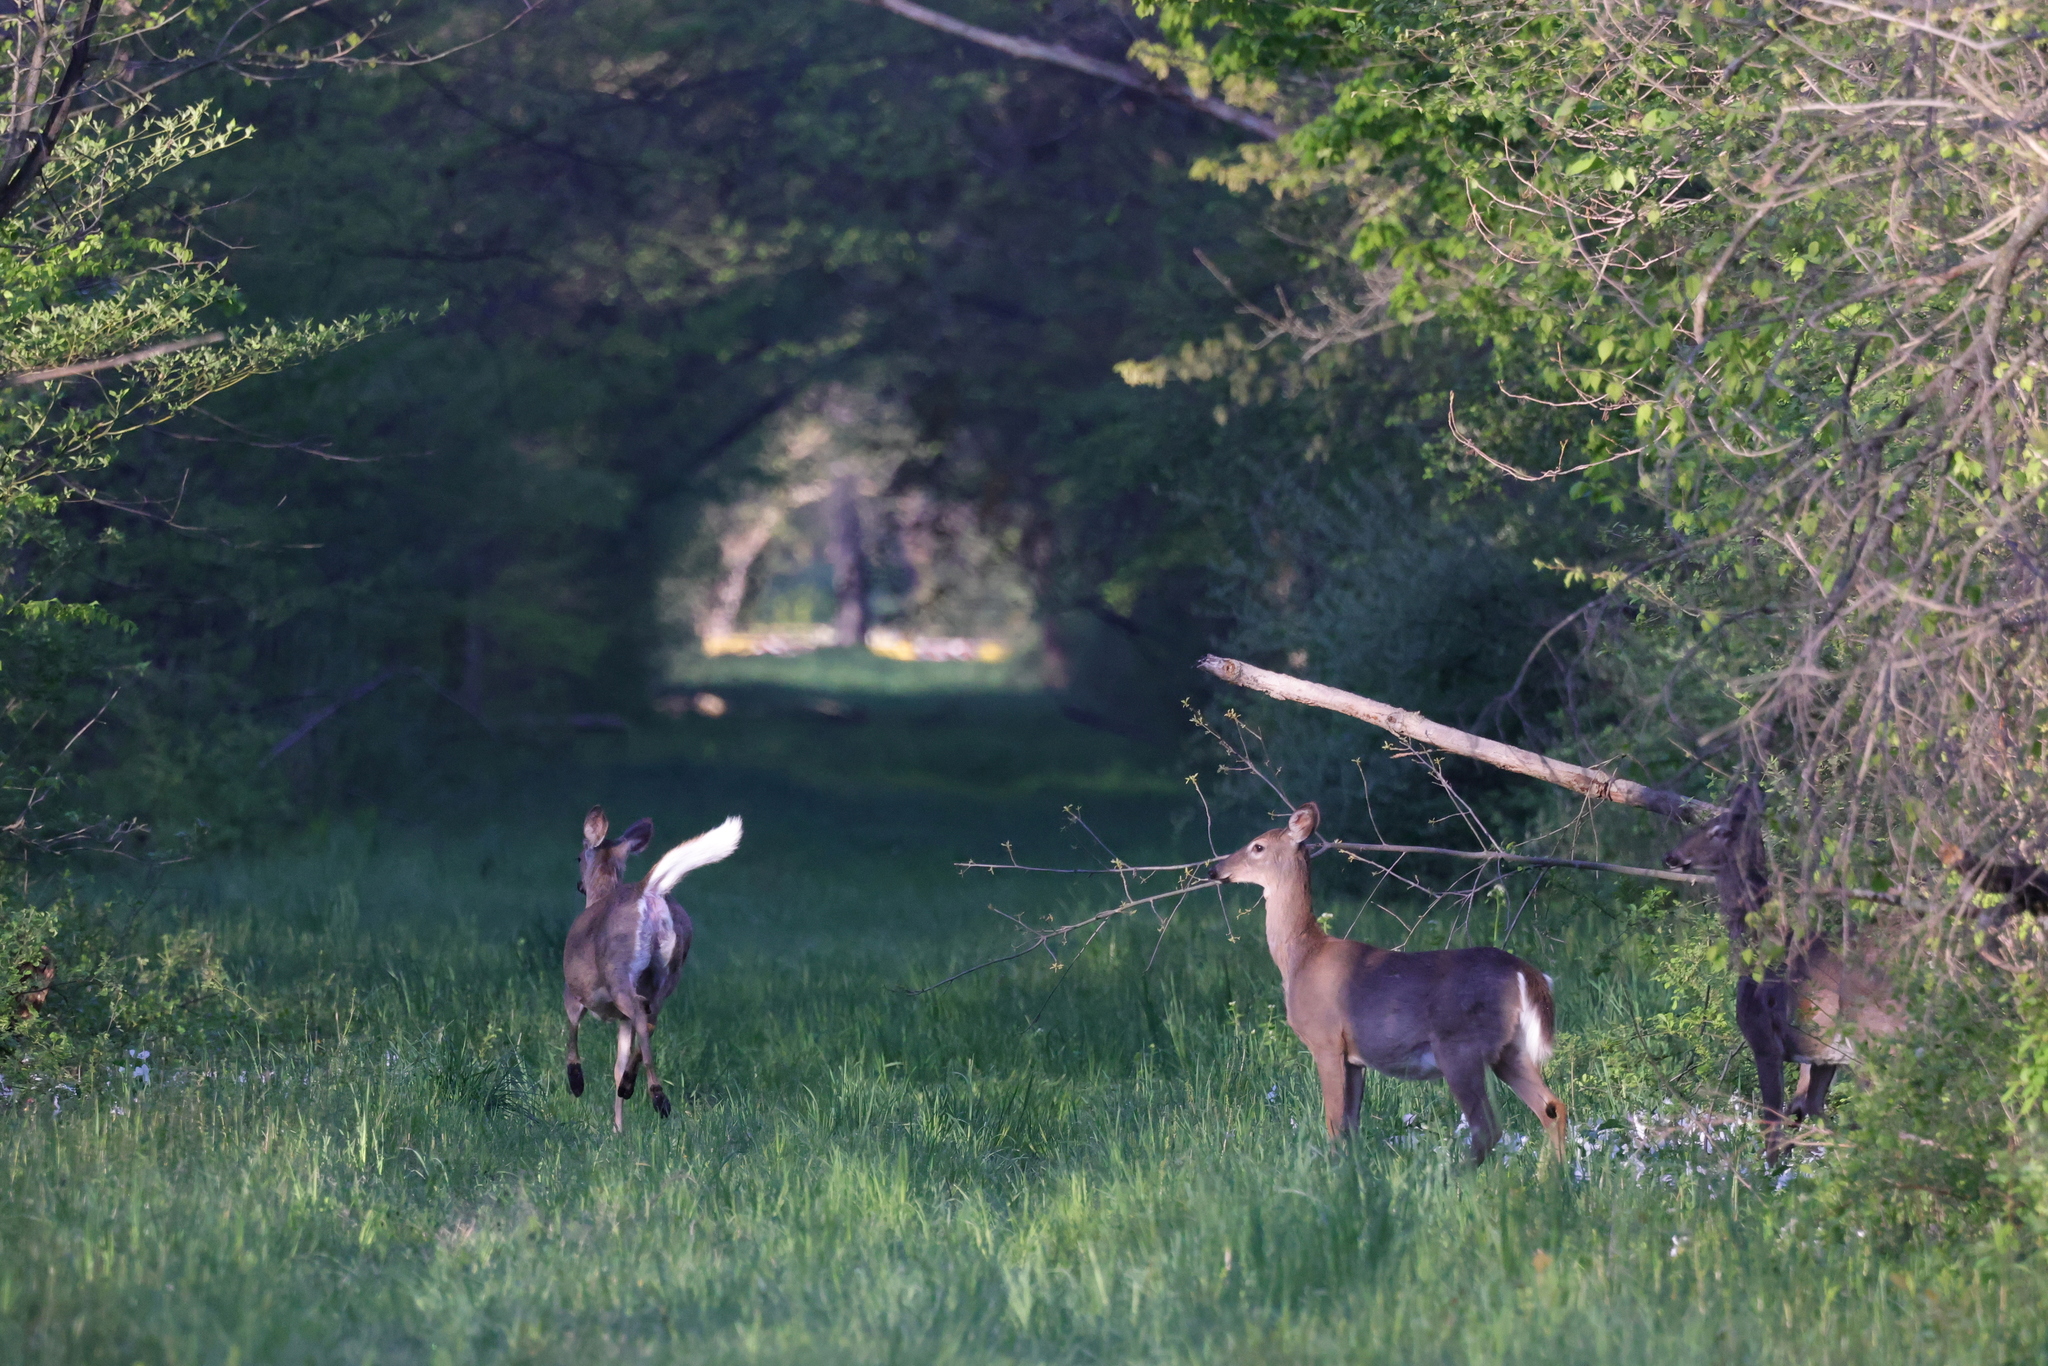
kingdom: Animalia
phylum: Chordata
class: Mammalia
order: Artiodactyla
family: Cervidae
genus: Odocoileus
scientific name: Odocoileus virginianus
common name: White-tailed deer
